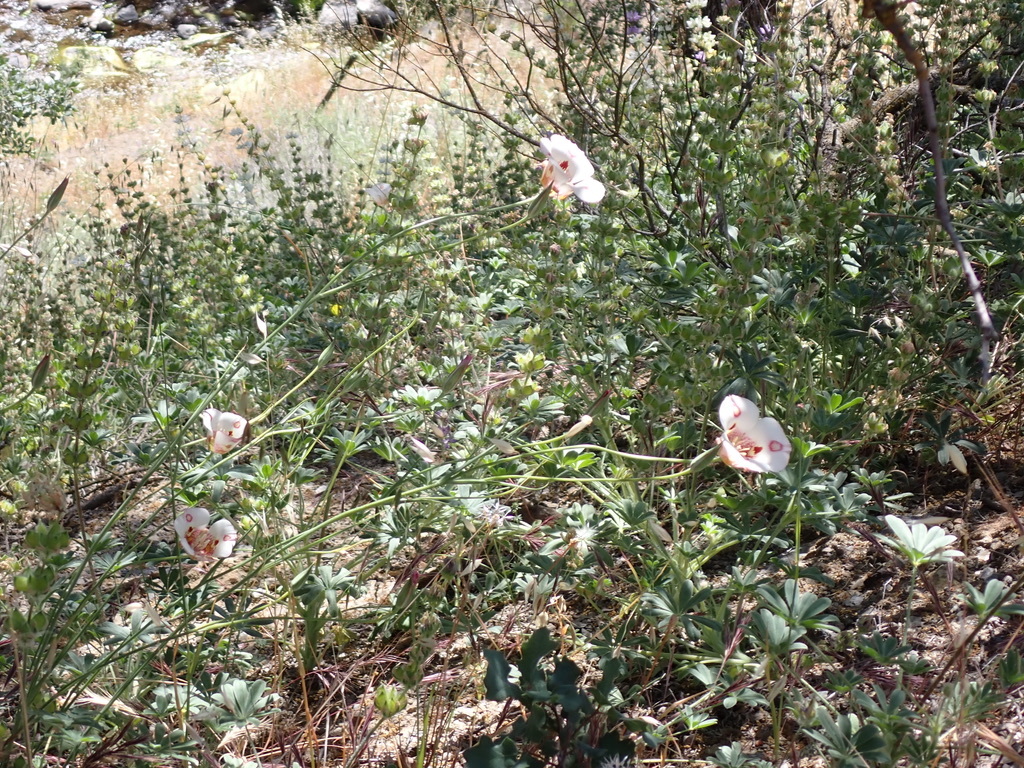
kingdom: Plantae
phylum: Tracheophyta
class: Liliopsida
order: Liliales
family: Liliaceae
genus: Calochortus
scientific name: Calochortus venustus
